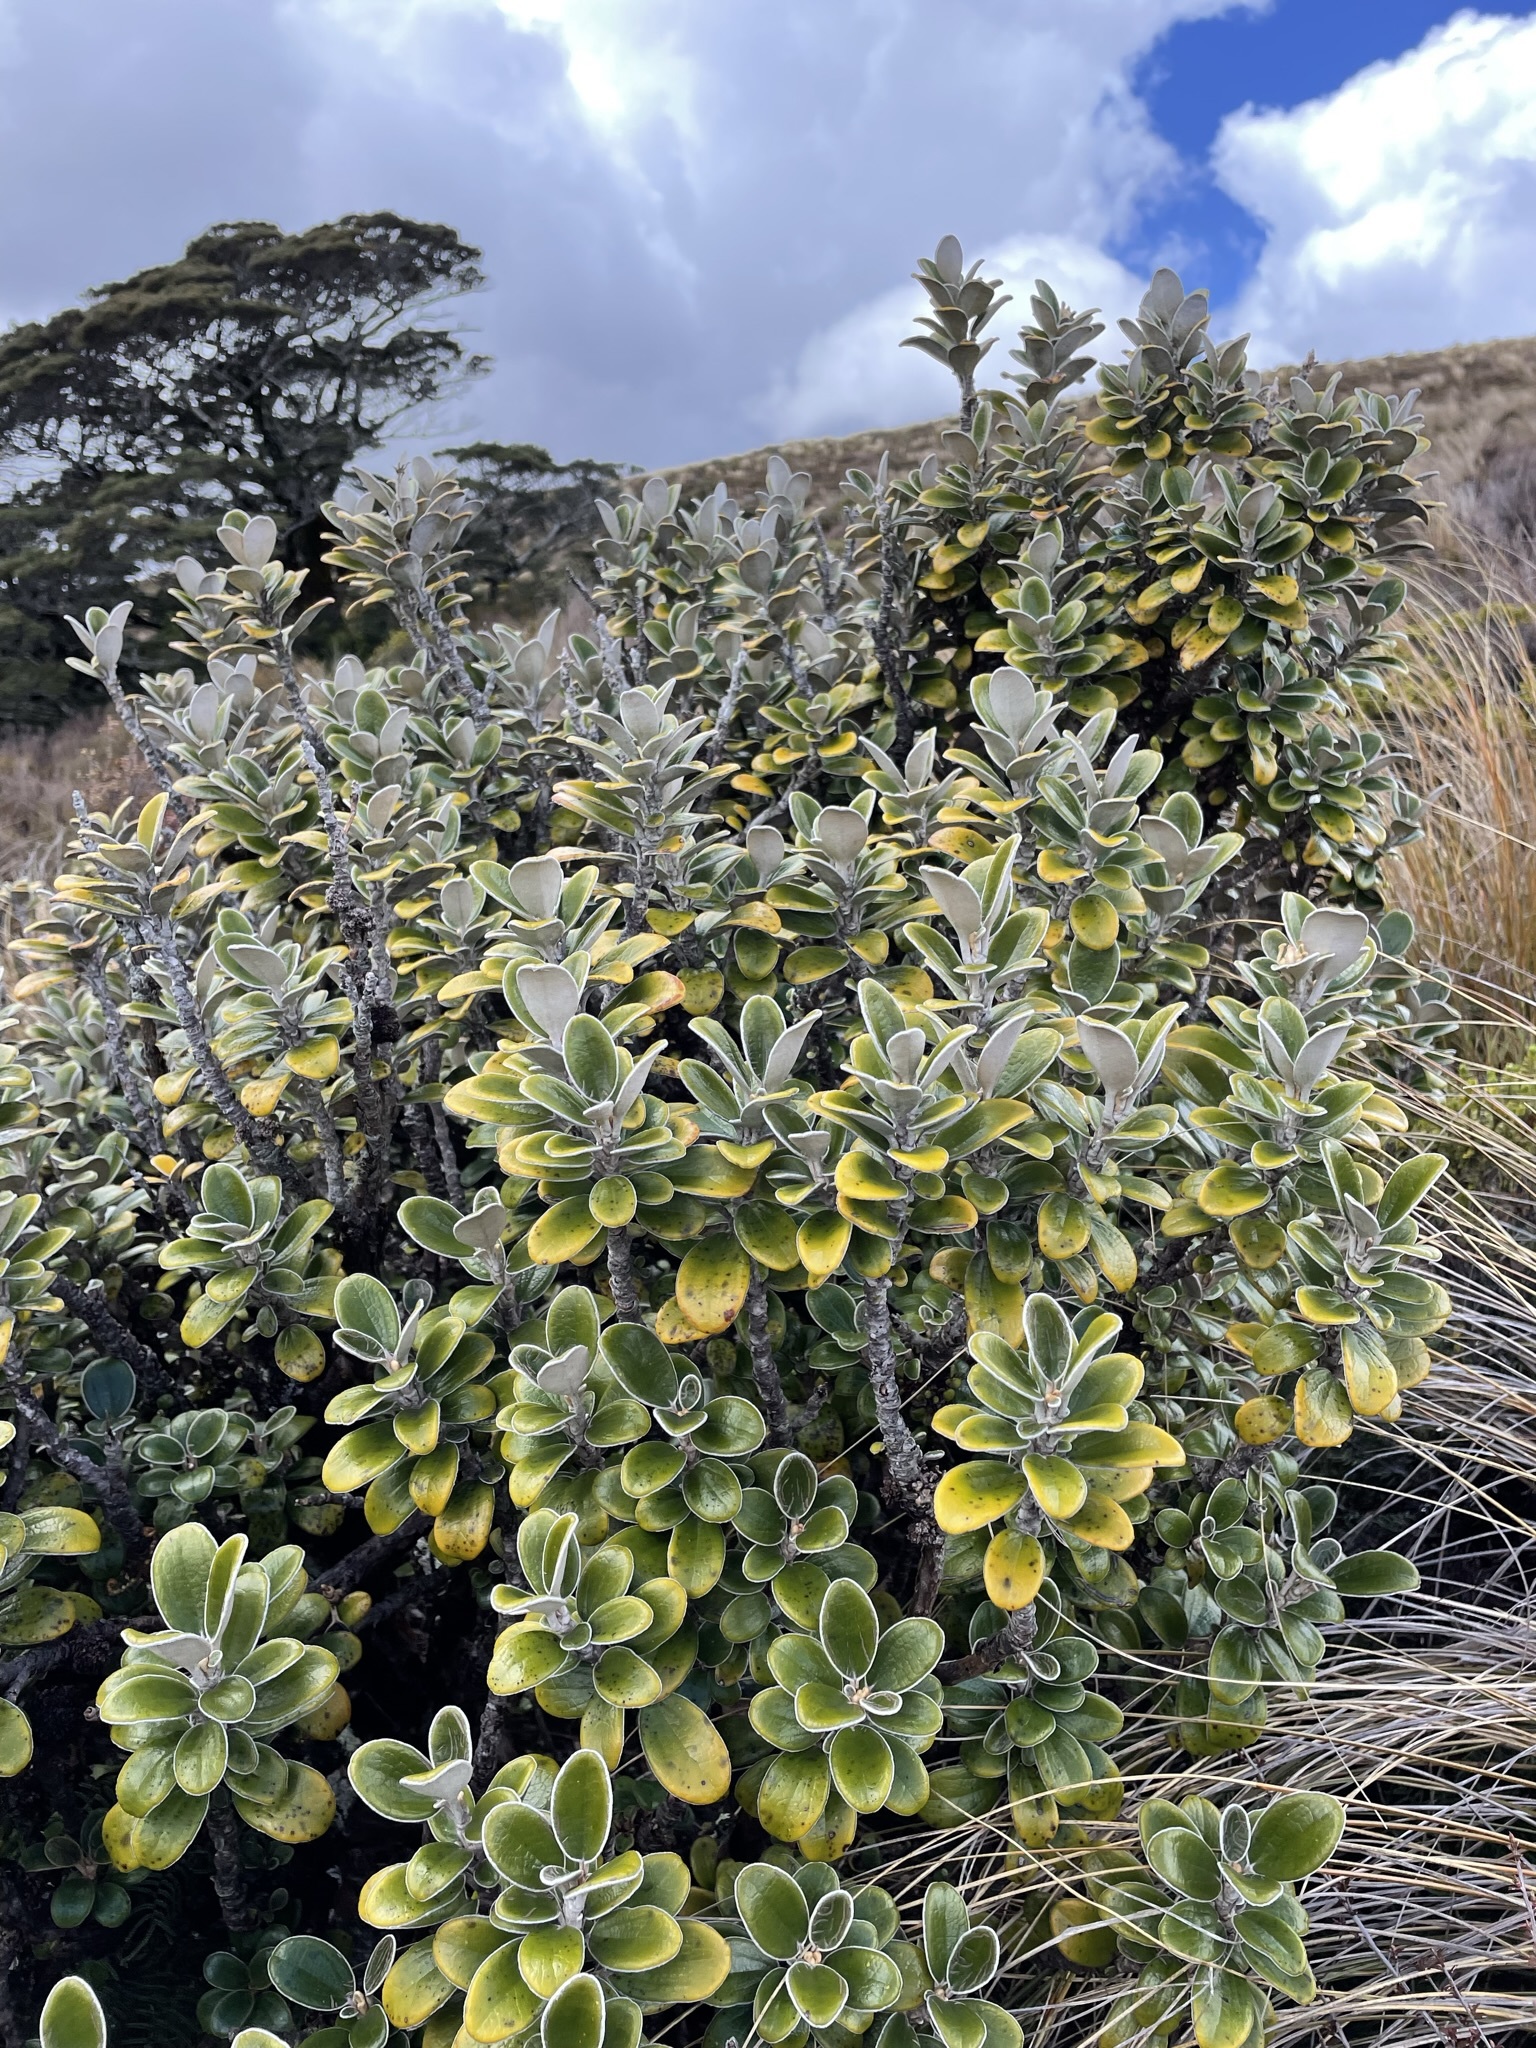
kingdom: Plantae
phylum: Tracheophyta
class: Magnoliopsida
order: Asterales
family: Asteraceae
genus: Brachyglottis
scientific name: Brachyglottis bidwillii
